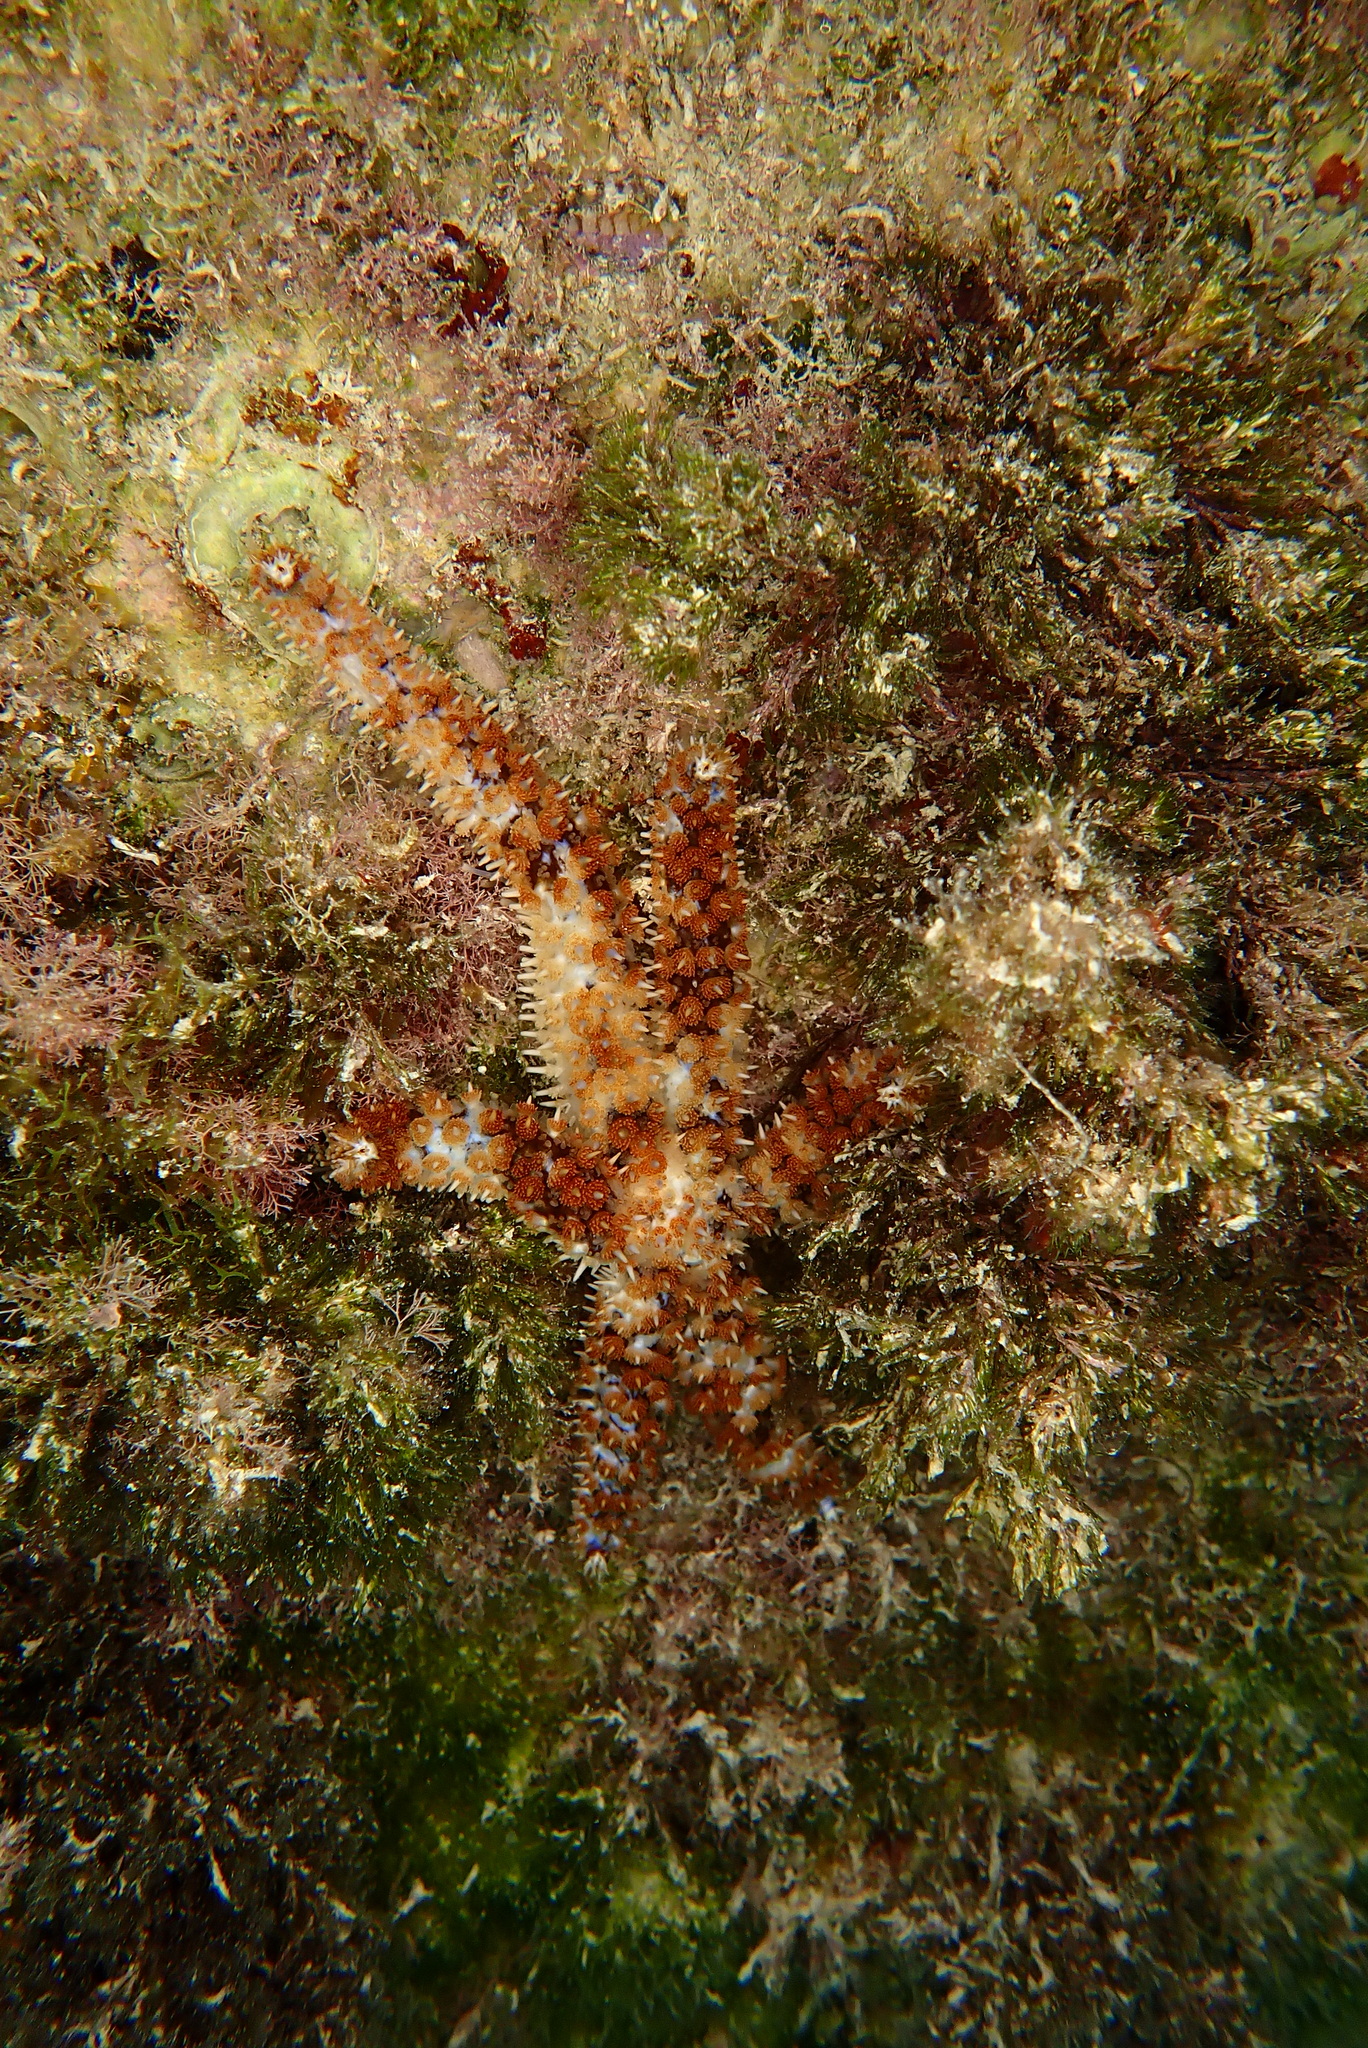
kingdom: Animalia
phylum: Echinodermata
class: Asteroidea
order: Forcipulatida
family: Asteriidae
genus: Coscinasterias
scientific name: Coscinasterias tenuispina
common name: Blue spiny starfish
